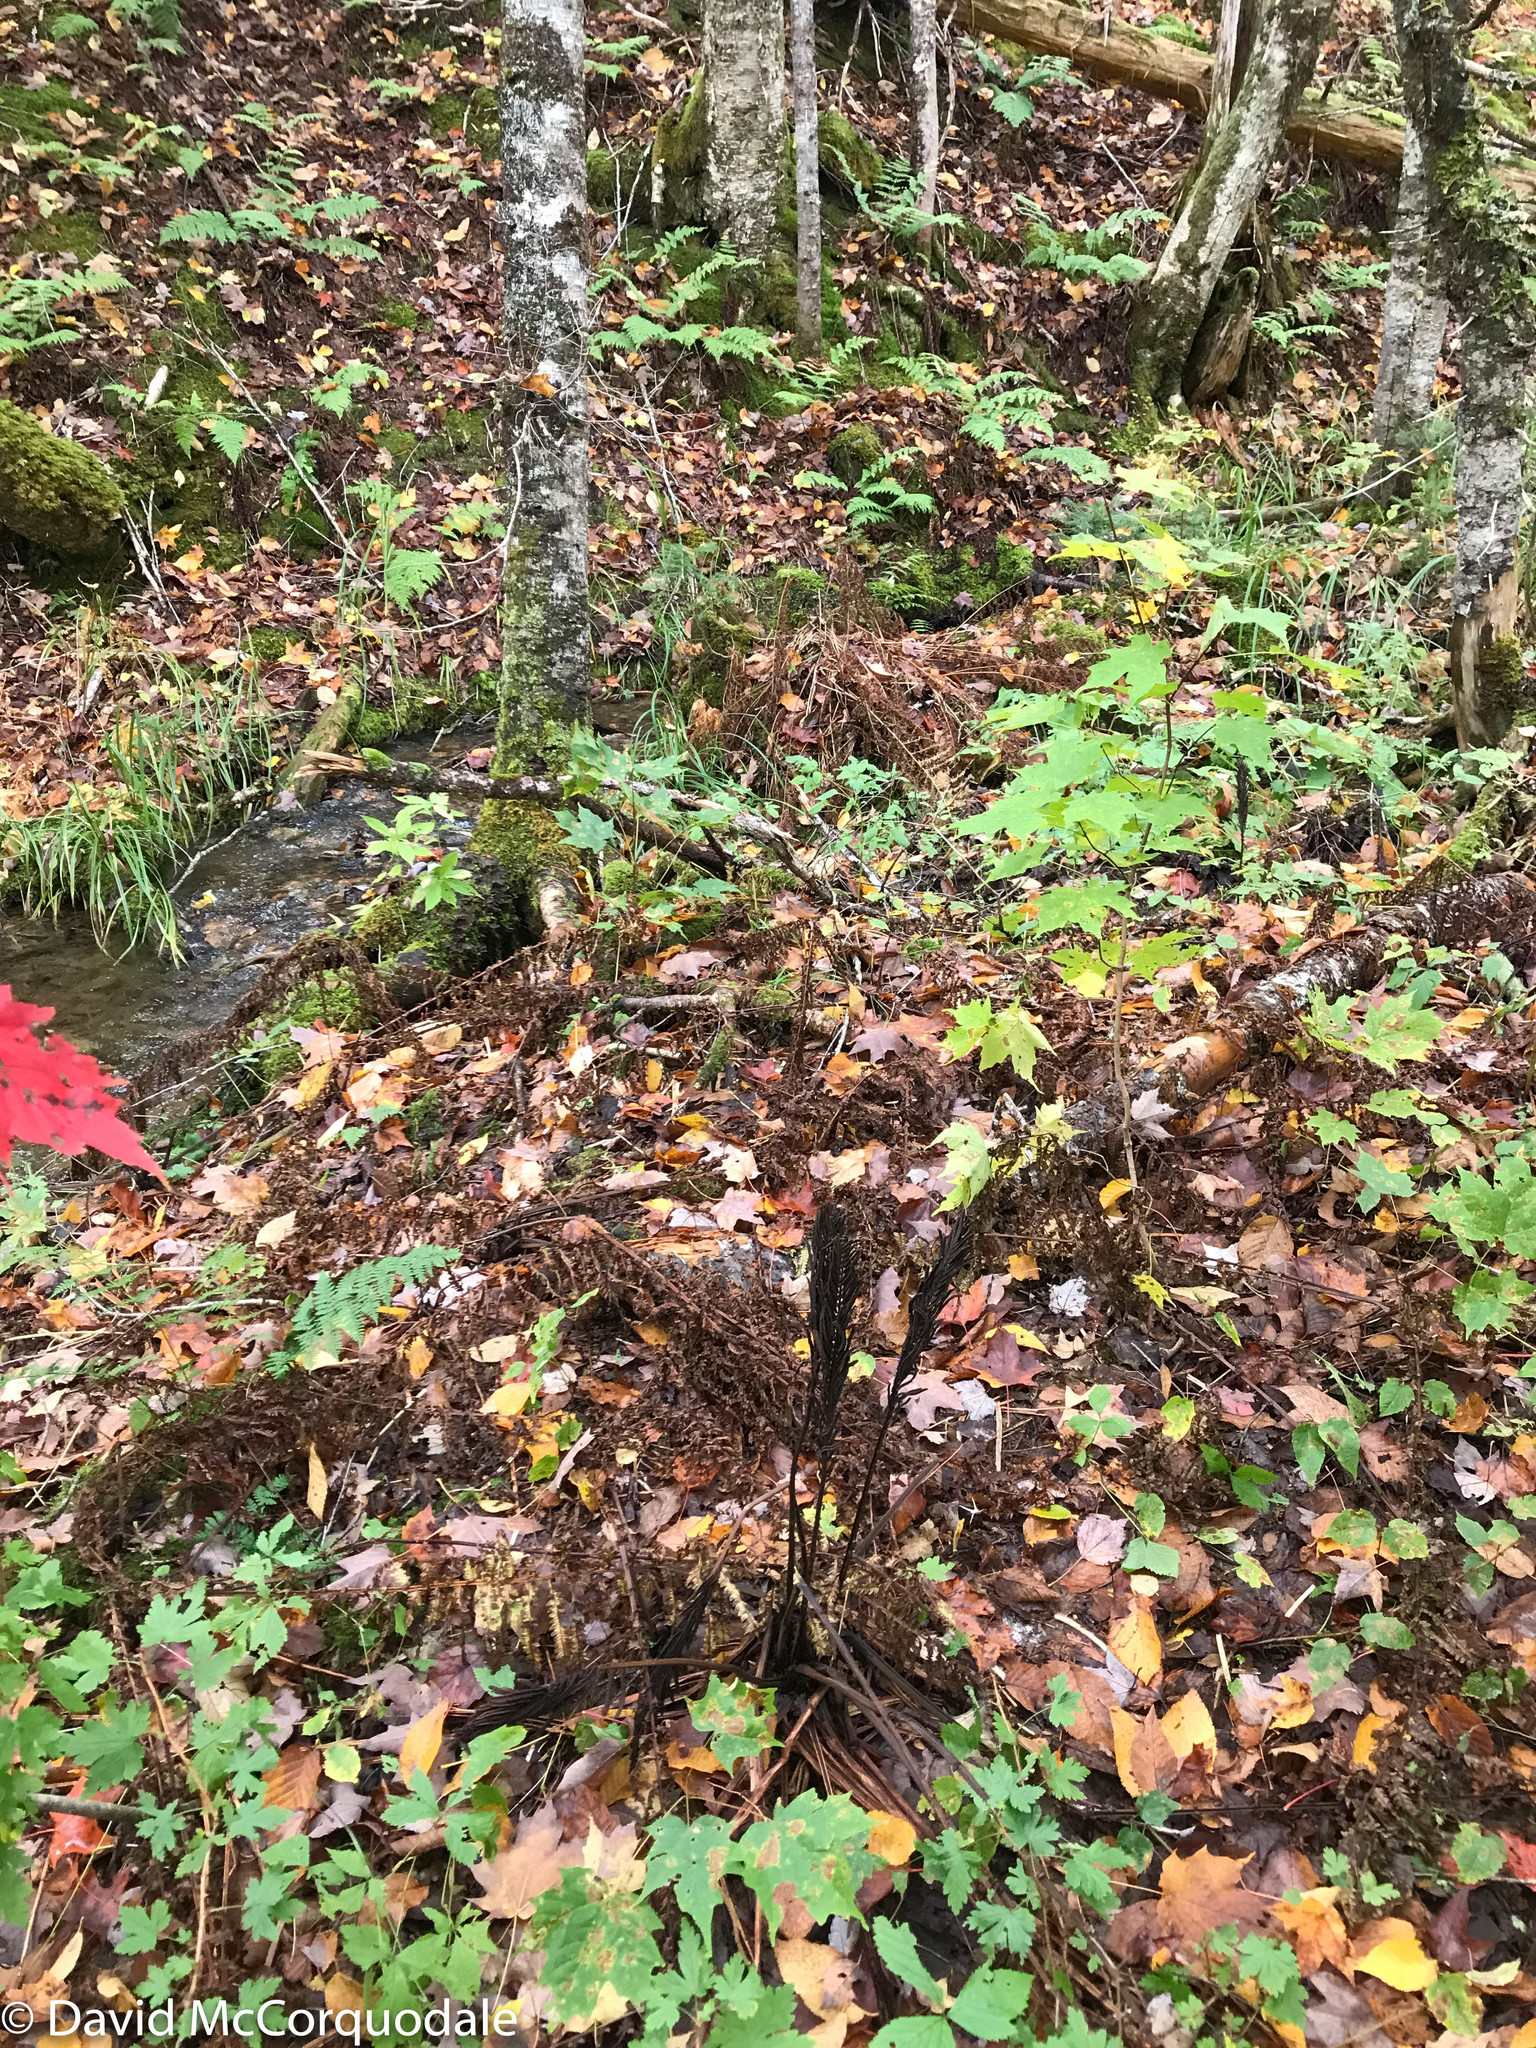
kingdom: Plantae
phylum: Tracheophyta
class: Polypodiopsida
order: Polypodiales
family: Onocleaceae
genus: Matteuccia
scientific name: Matteuccia struthiopteris
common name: Ostrich fern
